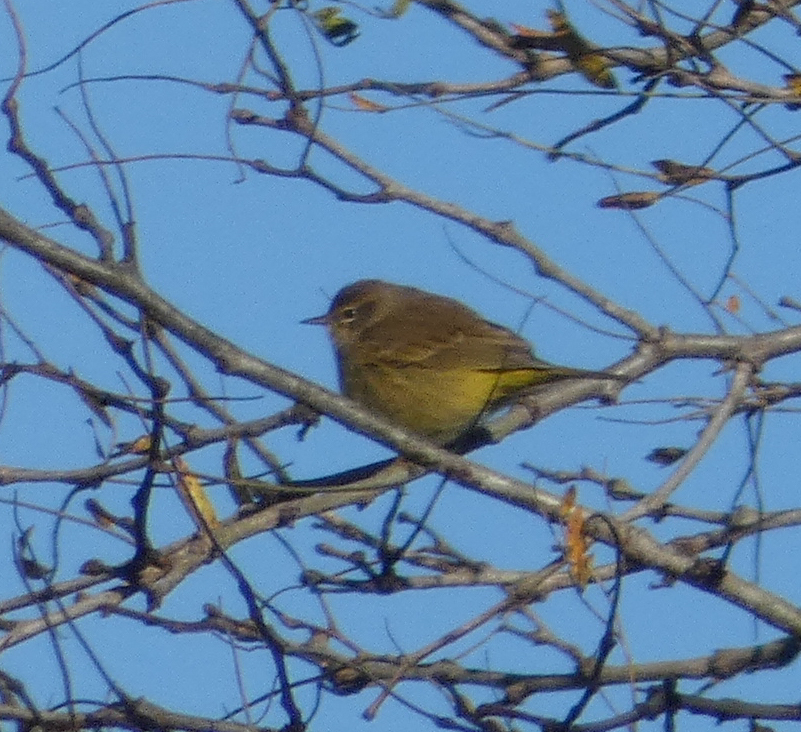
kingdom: Animalia
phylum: Chordata
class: Aves
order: Passeriformes
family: Parulidae
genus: Setophaga
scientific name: Setophaga palmarum
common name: Palm warbler
